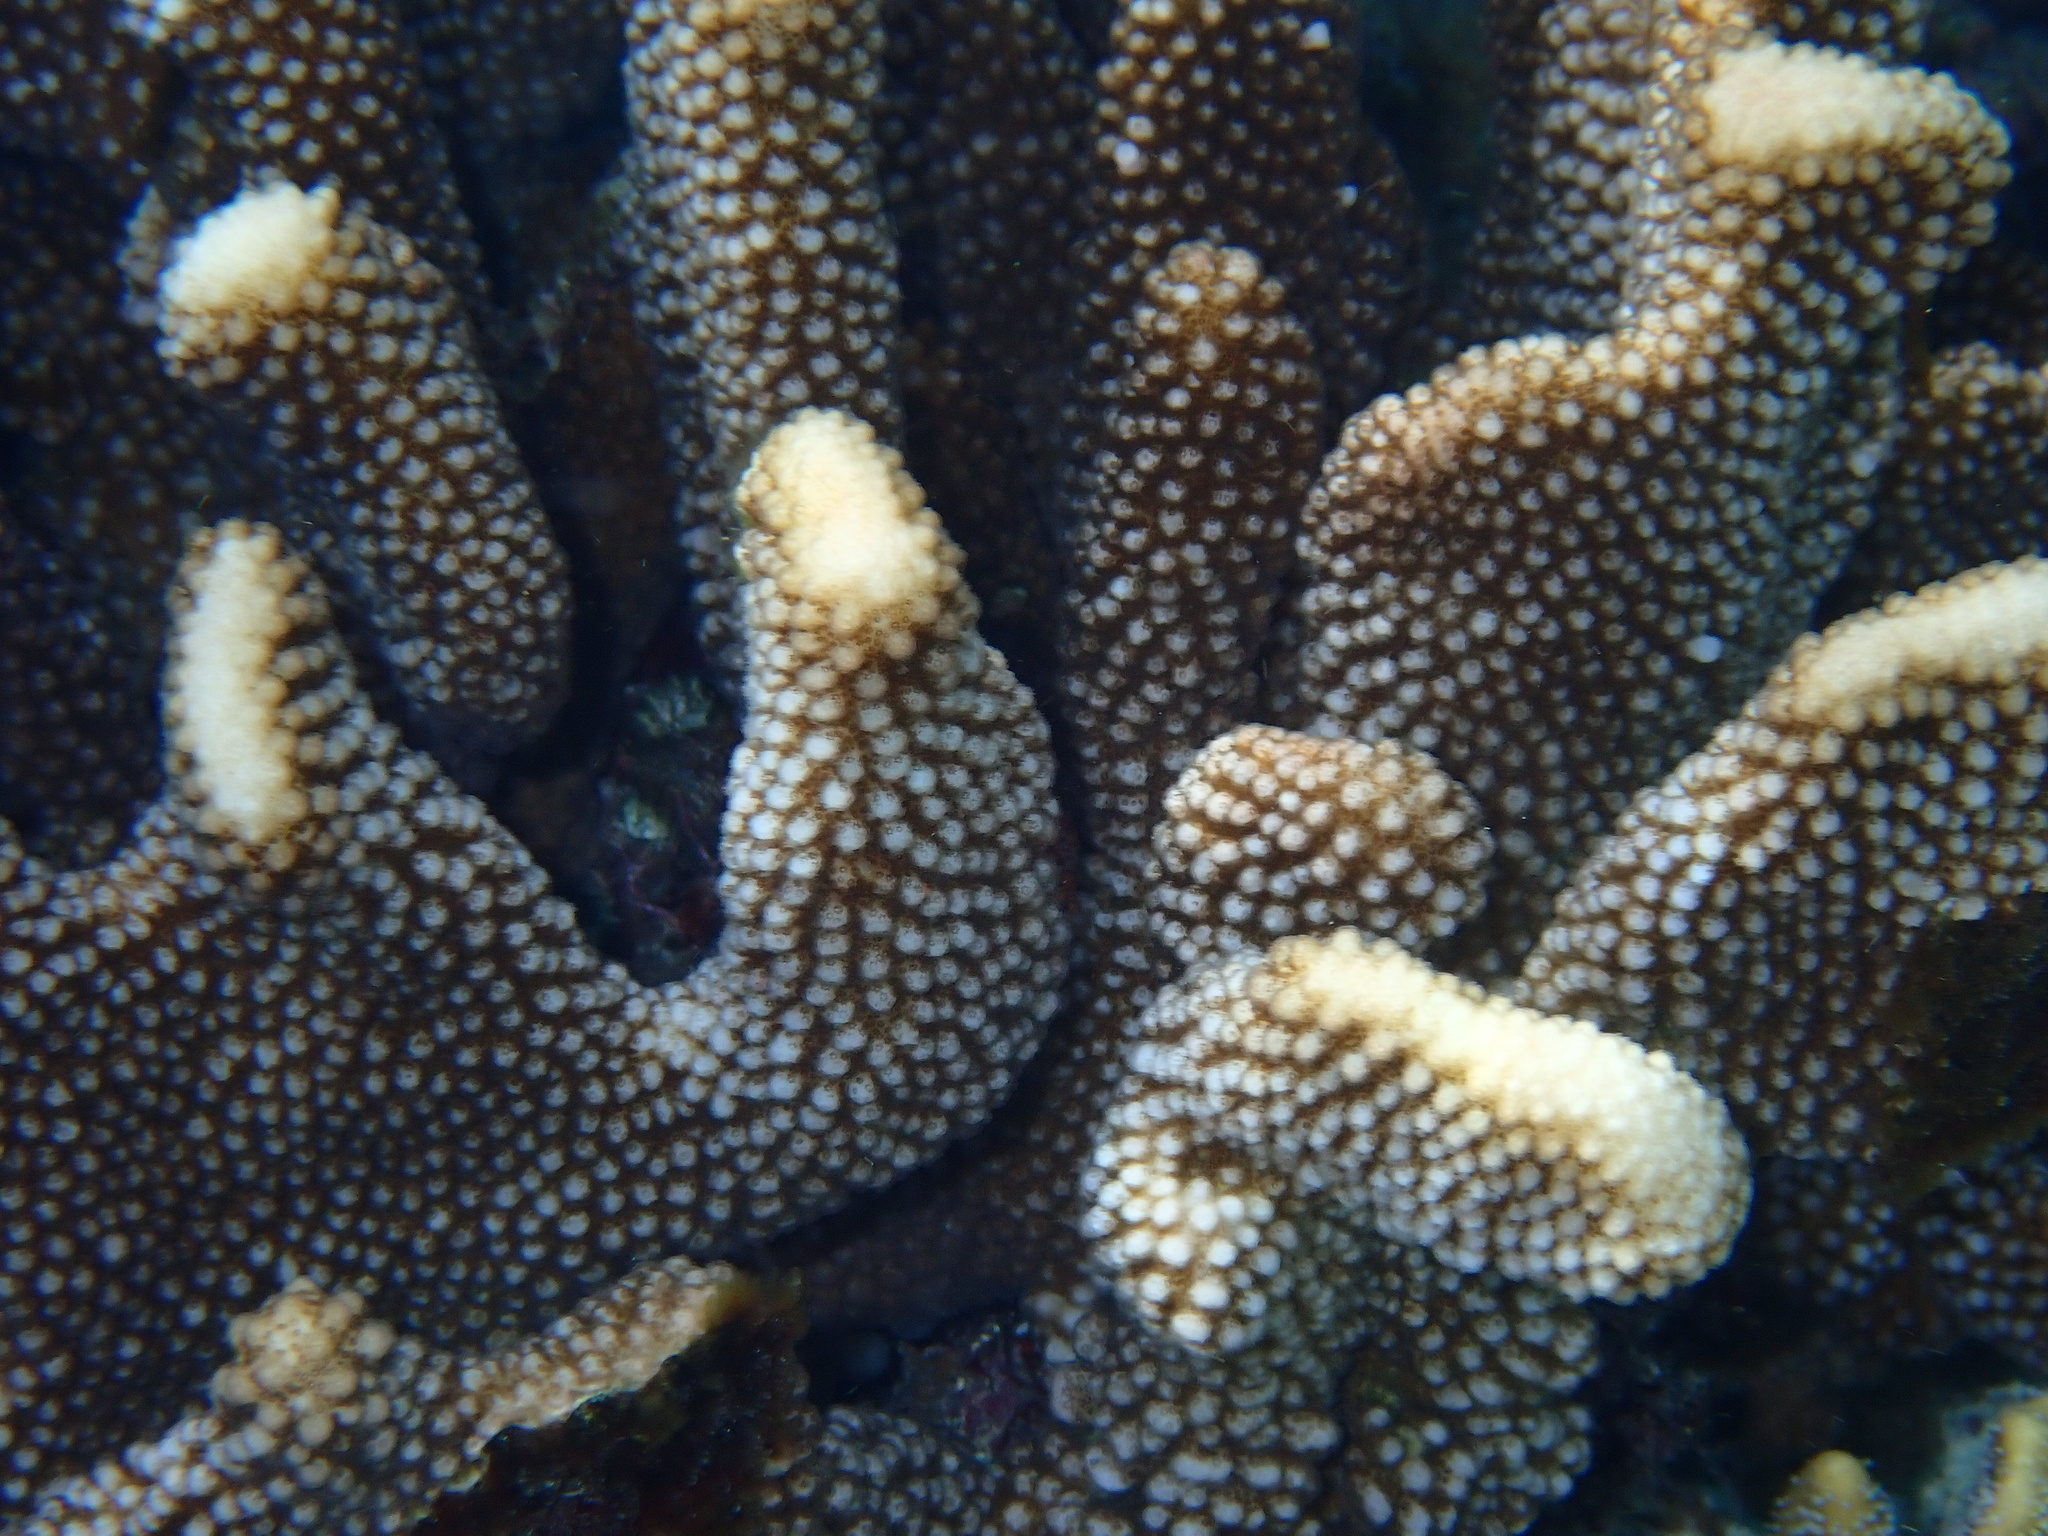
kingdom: Animalia
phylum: Cnidaria
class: Anthozoa
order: Scleractinia
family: Pocilloporidae
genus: Pocillopora
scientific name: Pocillopora grandis
